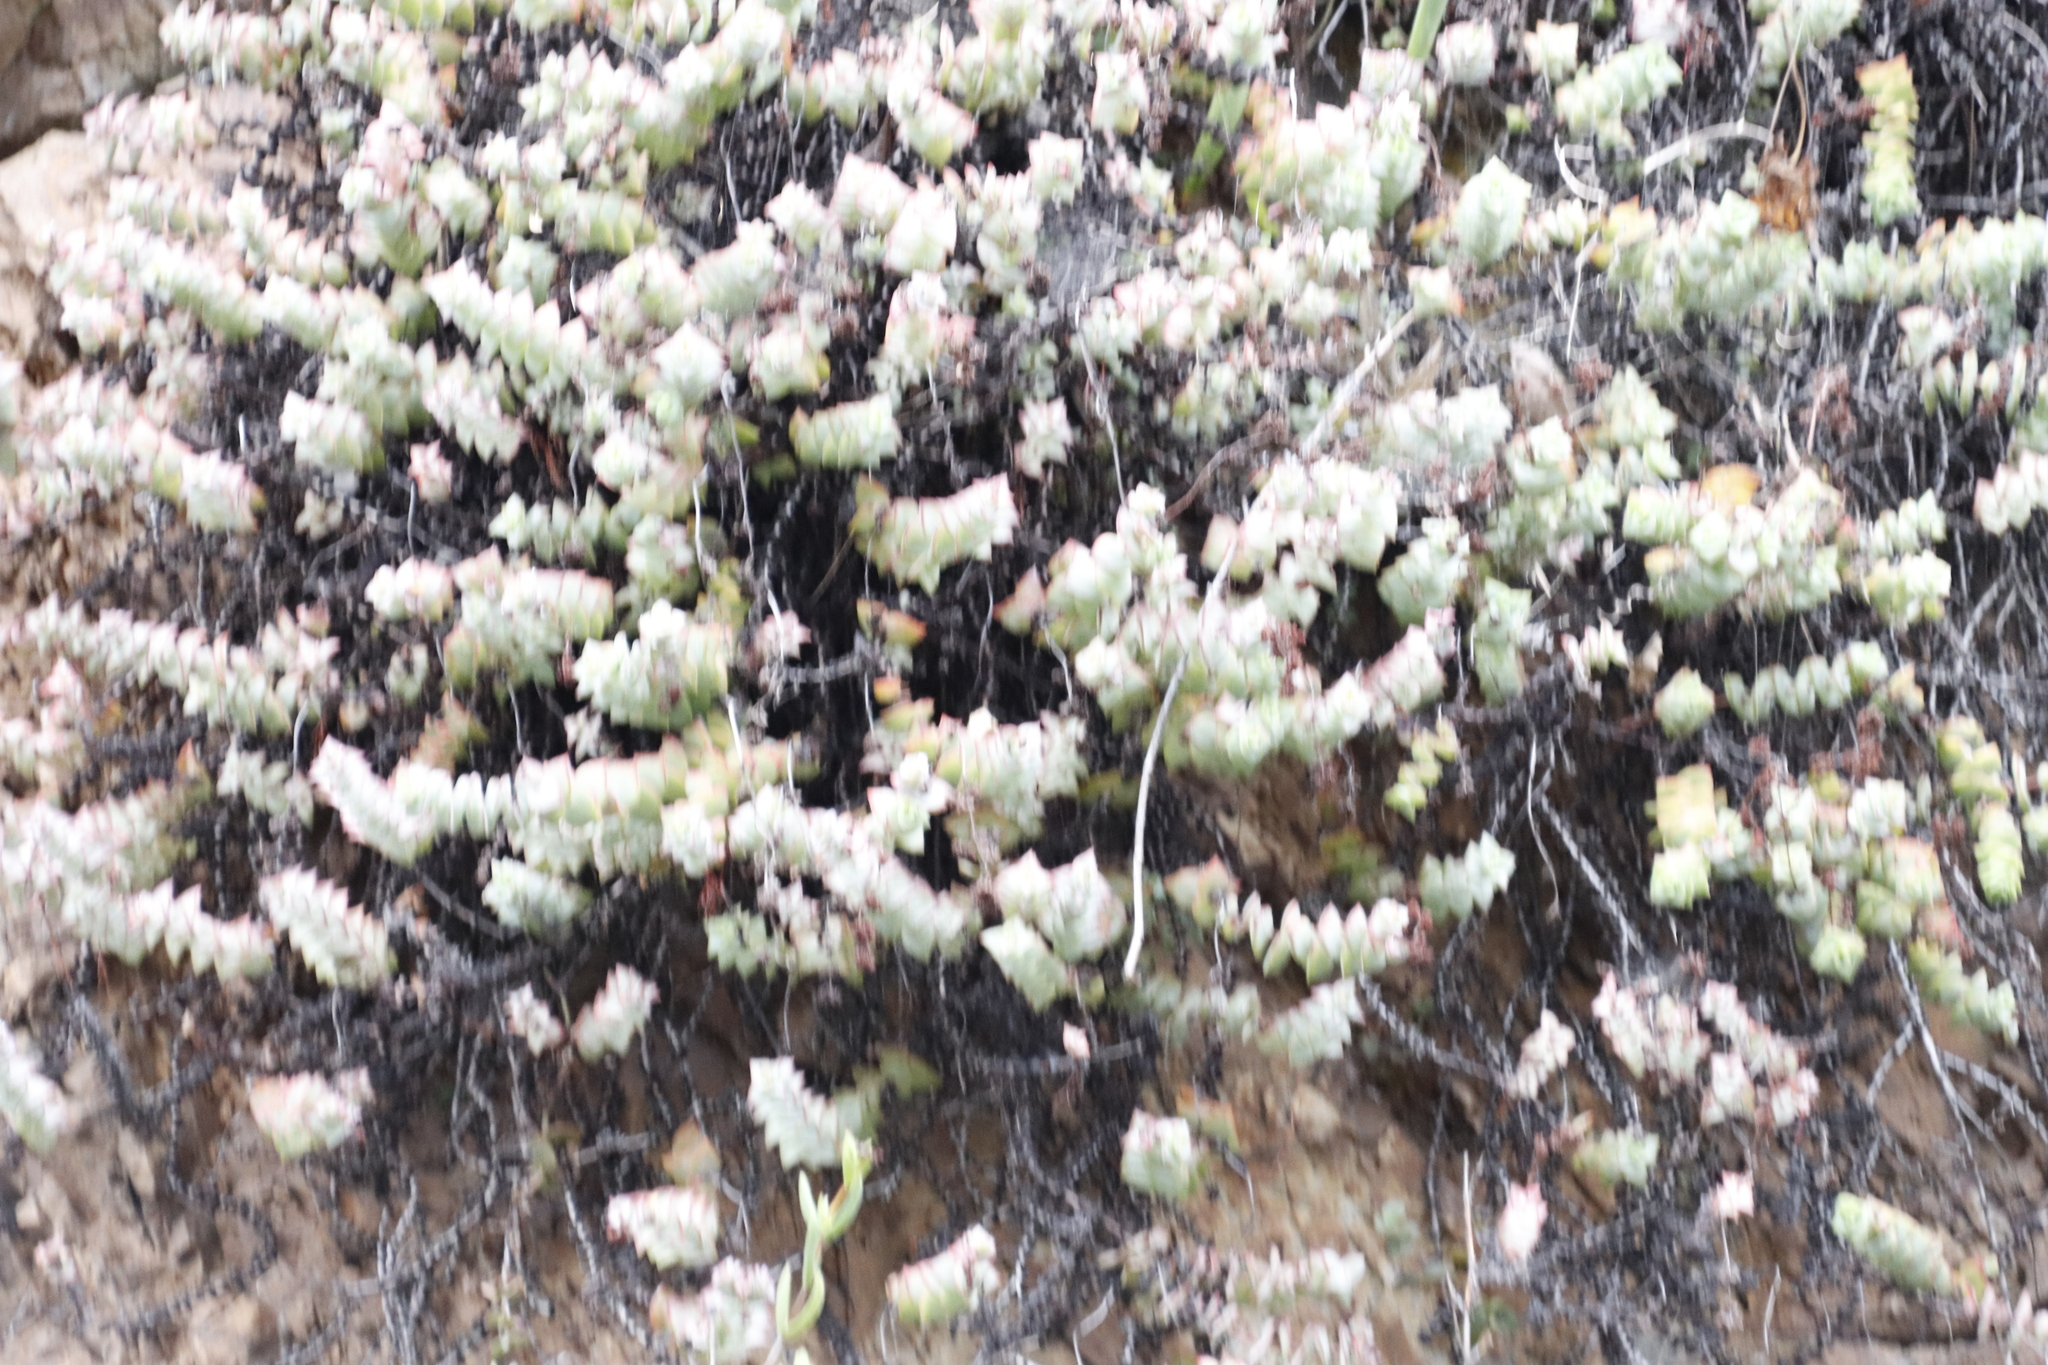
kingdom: Plantae
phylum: Tracheophyta
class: Magnoliopsida
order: Saxifragales
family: Crassulaceae
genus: Crassula
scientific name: Crassula perforata
